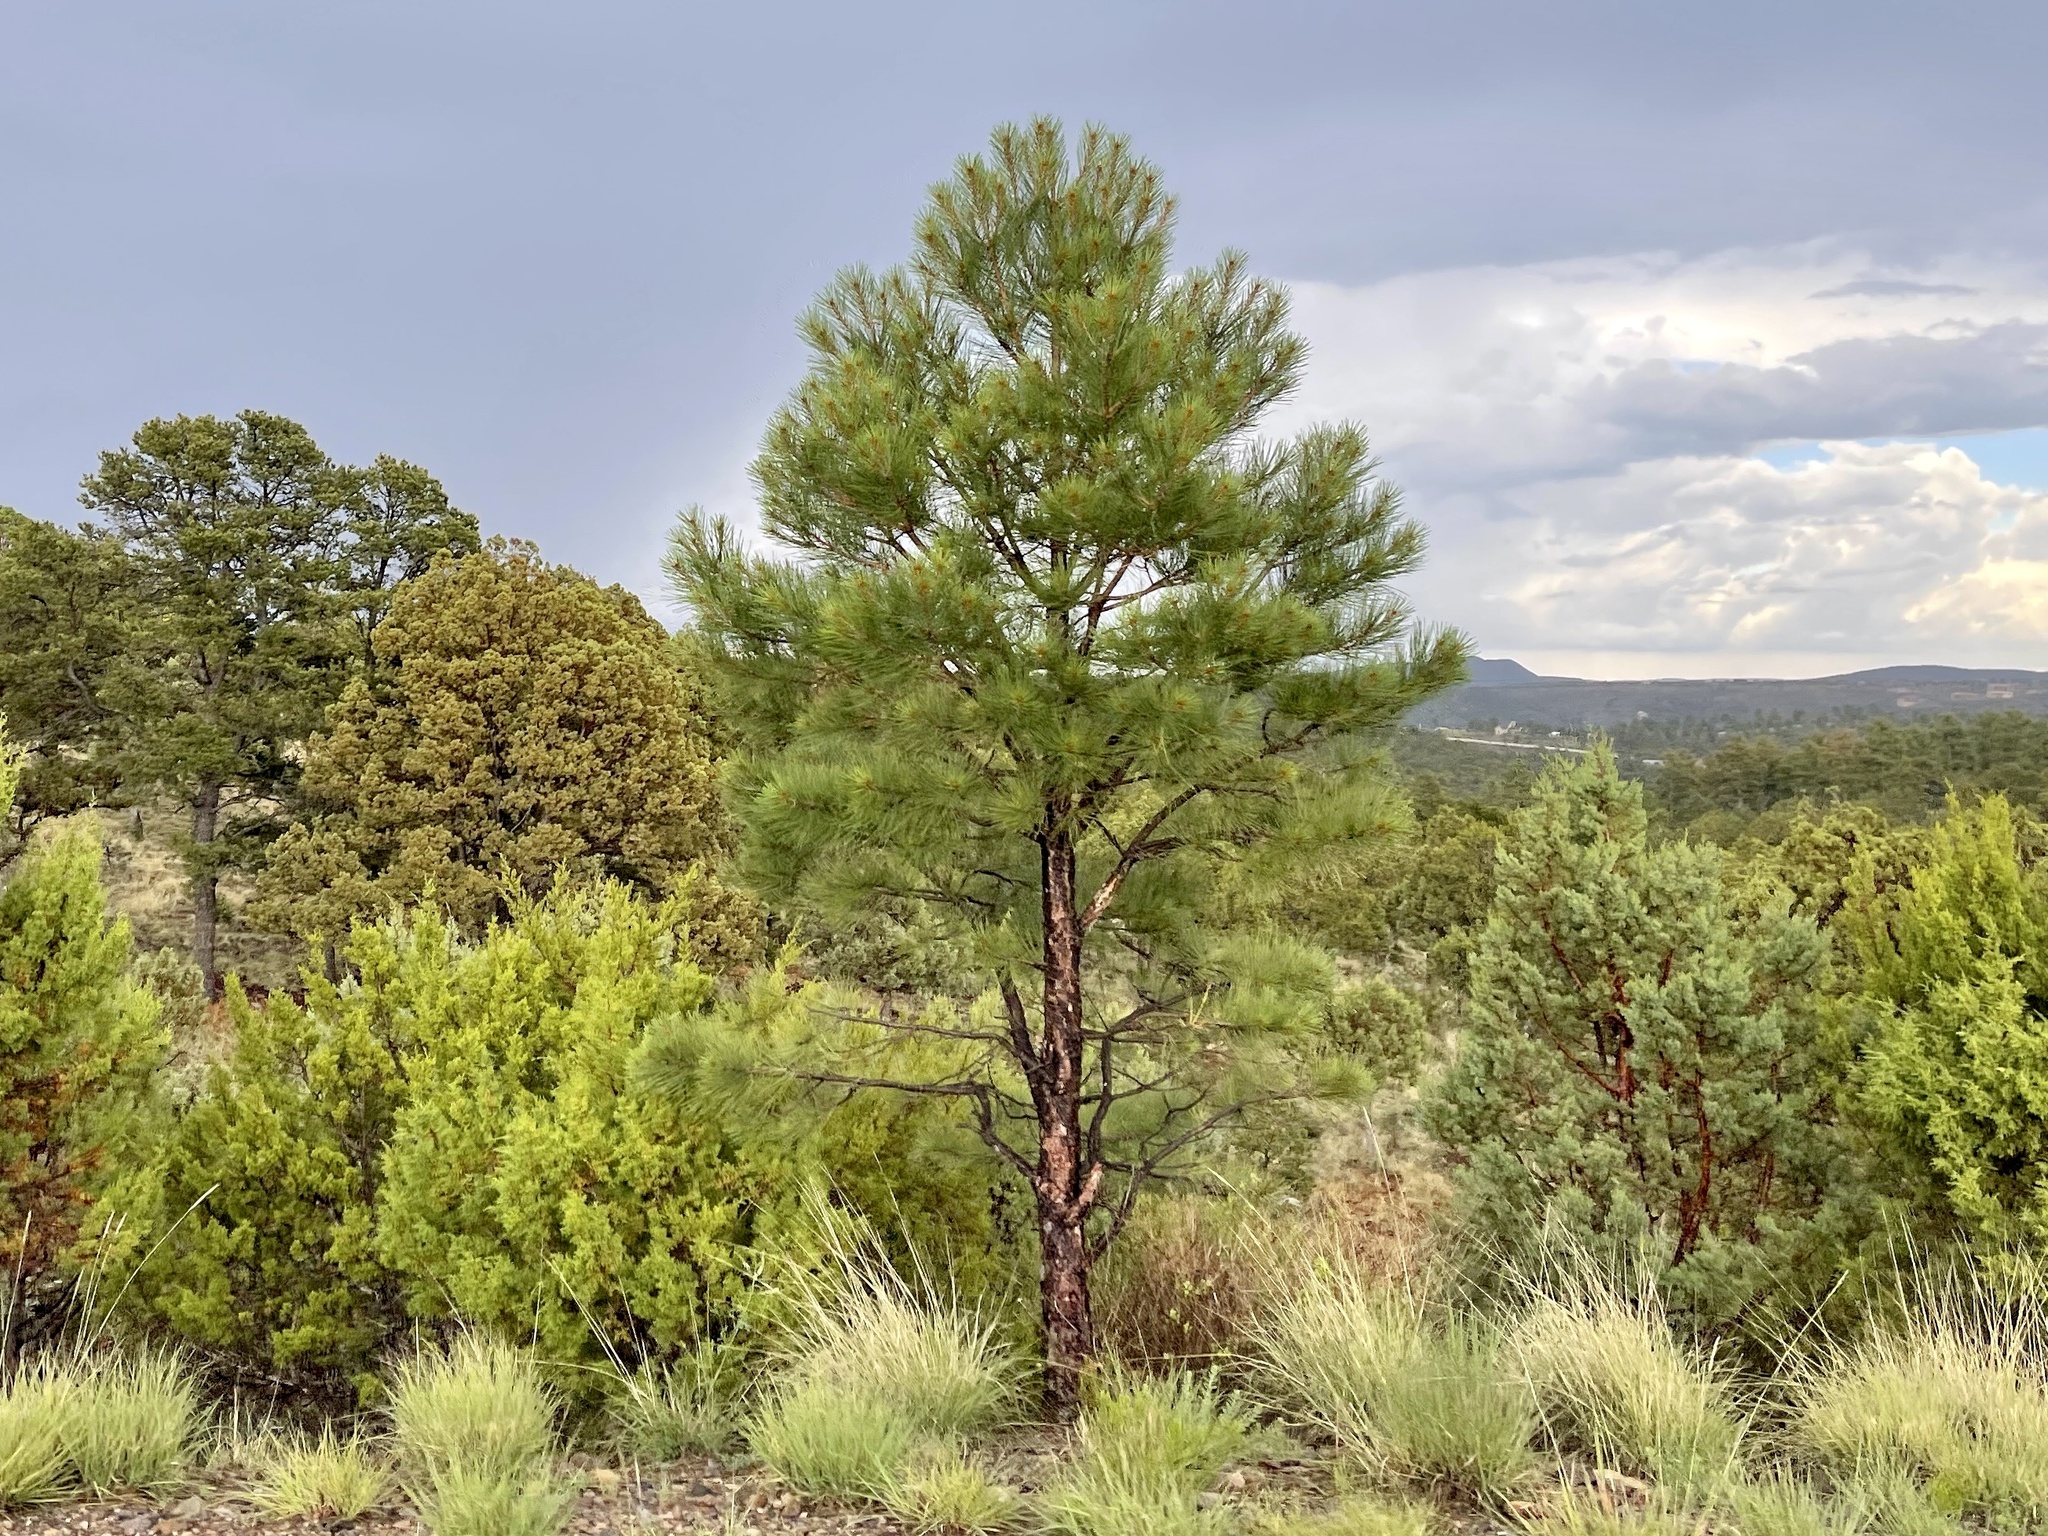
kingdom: Plantae
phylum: Tracheophyta
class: Pinopsida
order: Pinales
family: Pinaceae
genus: Pinus
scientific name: Pinus ponderosa
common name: Western yellow-pine
